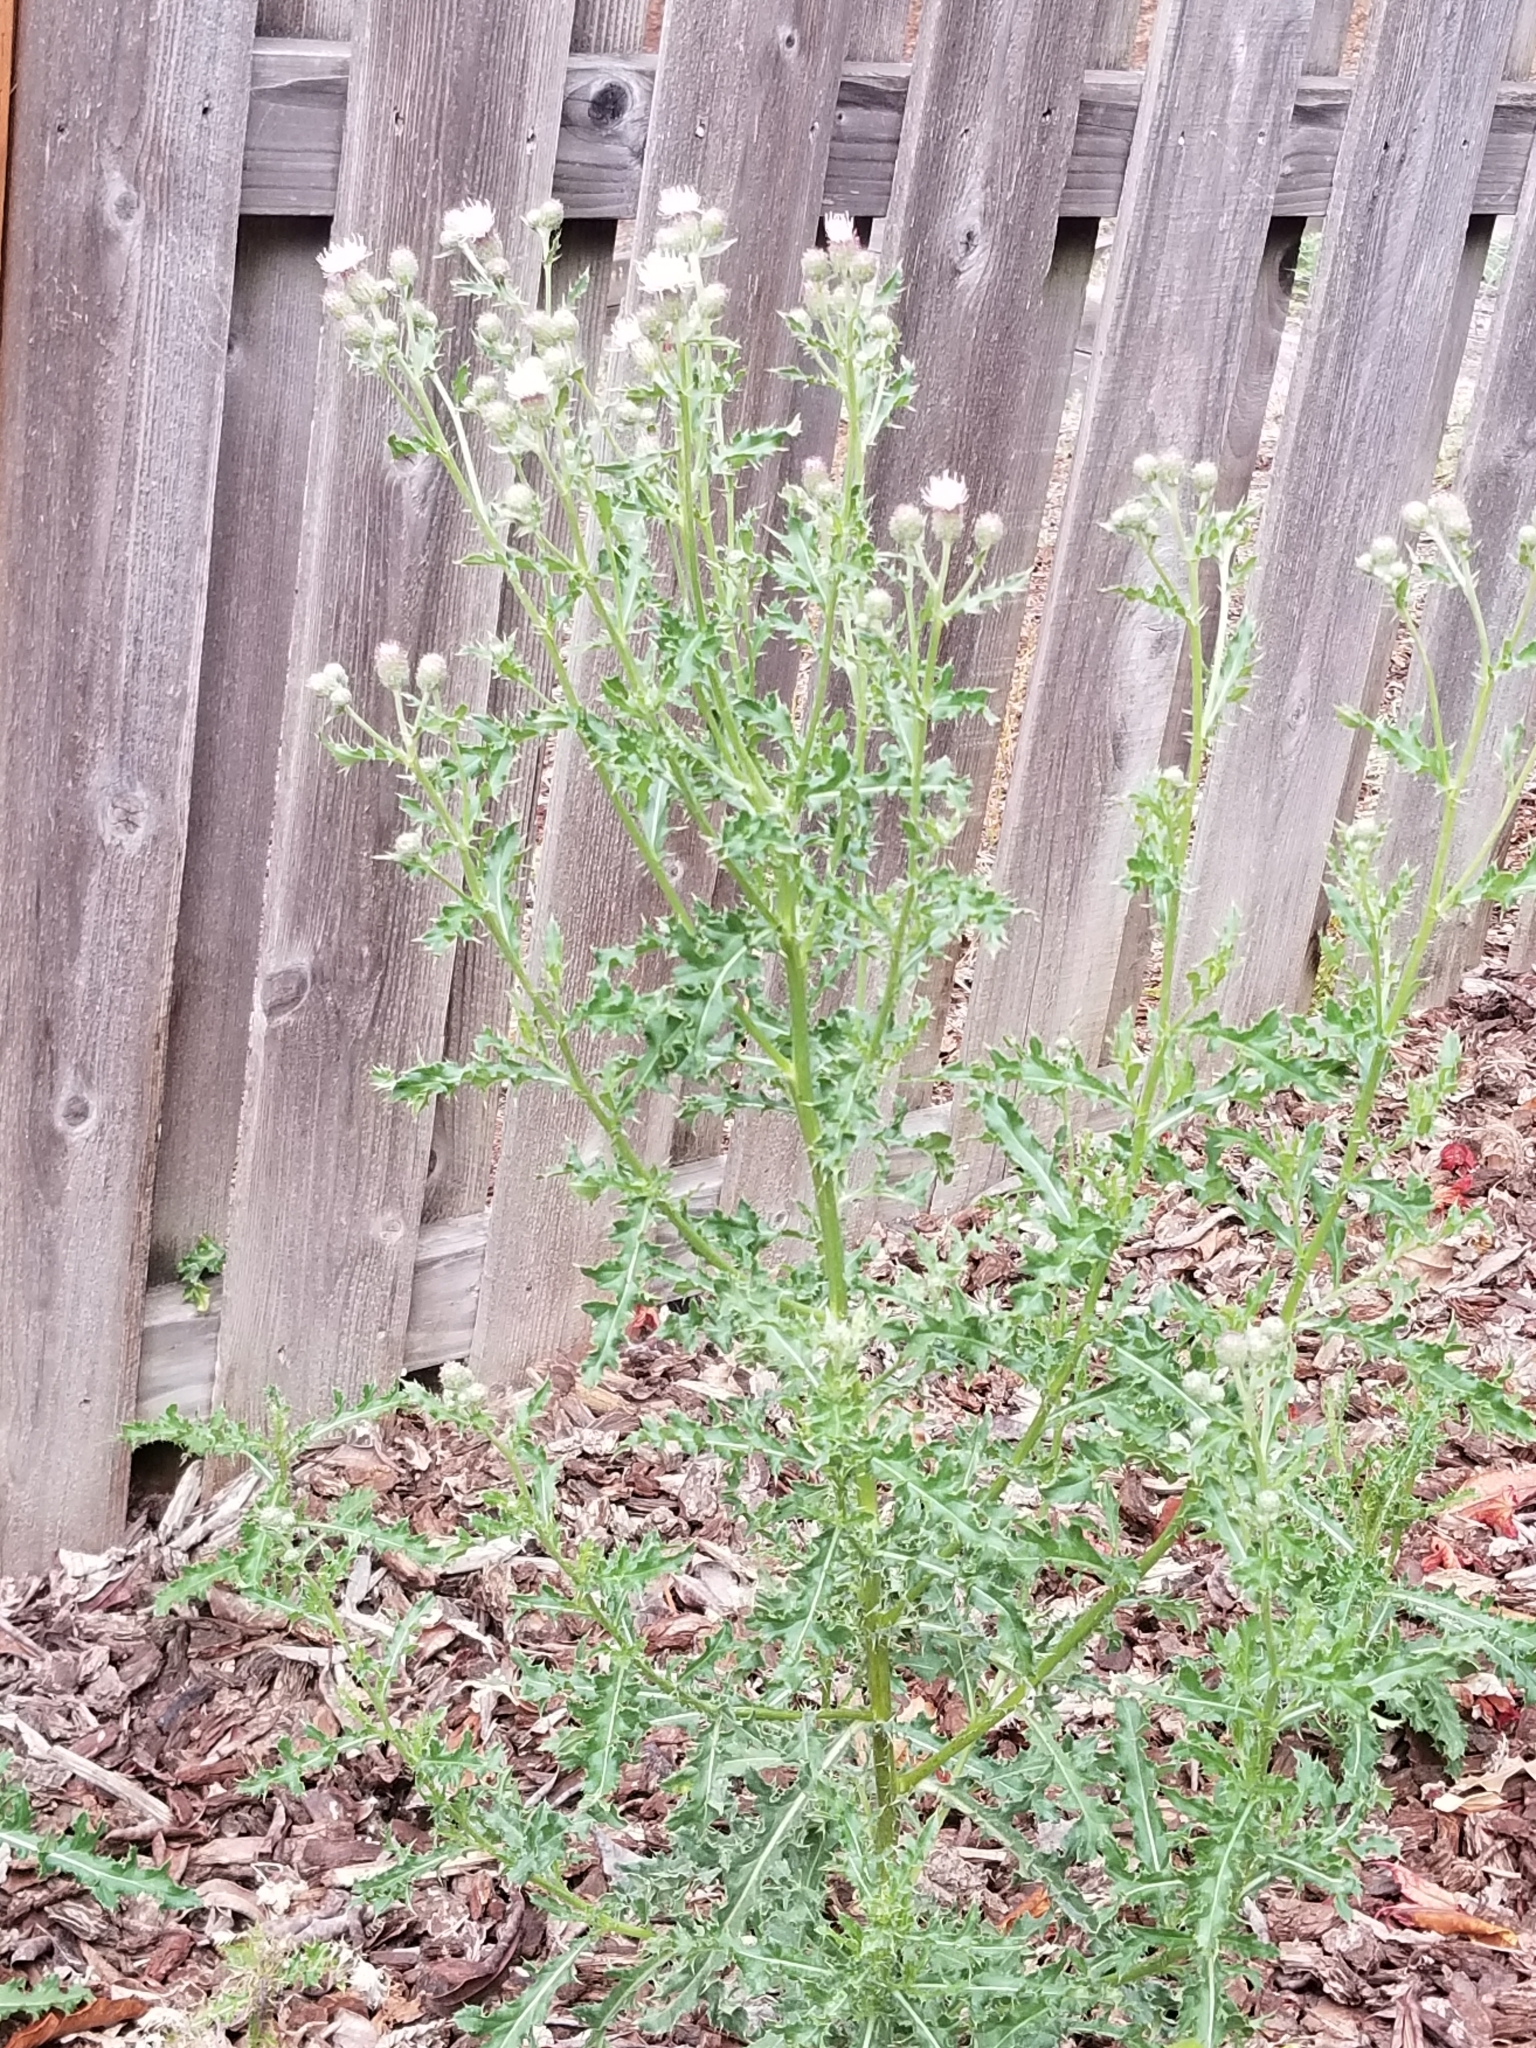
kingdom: Plantae
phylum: Tracheophyta
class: Magnoliopsida
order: Asterales
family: Asteraceae
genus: Cirsium
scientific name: Cirsium arvense
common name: Creeping thistle
